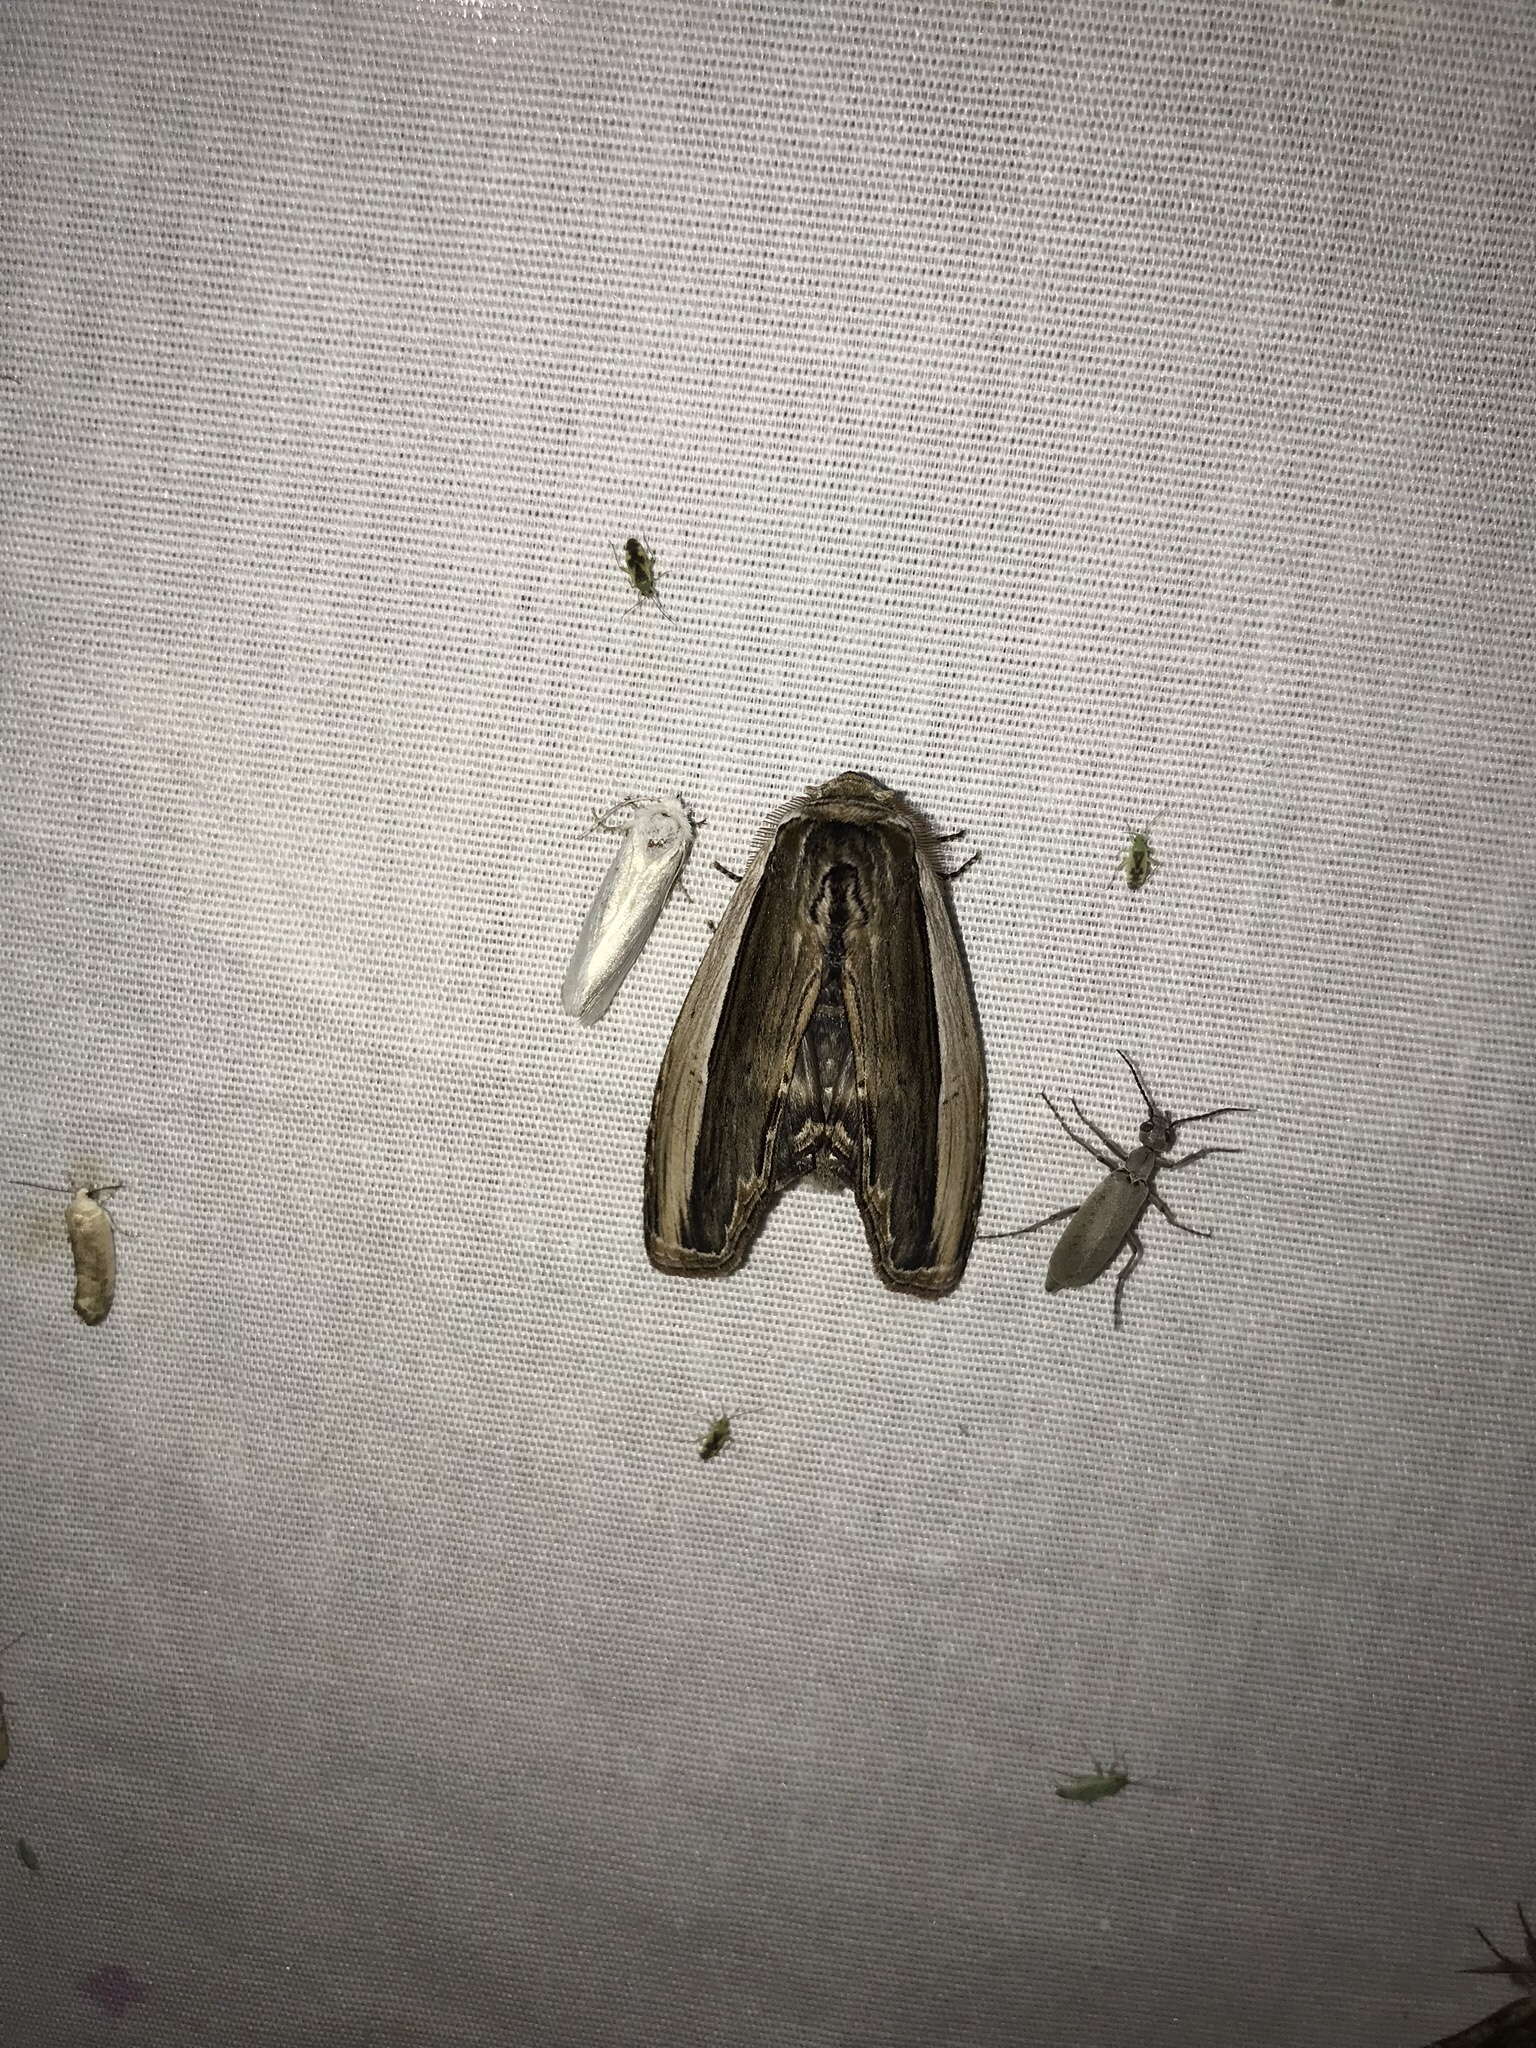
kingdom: Animalia
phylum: Arthropoda
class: Insecta
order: Lepidoptera
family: Notodontidae
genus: Truncaptera
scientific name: Truncaptera inopinata
